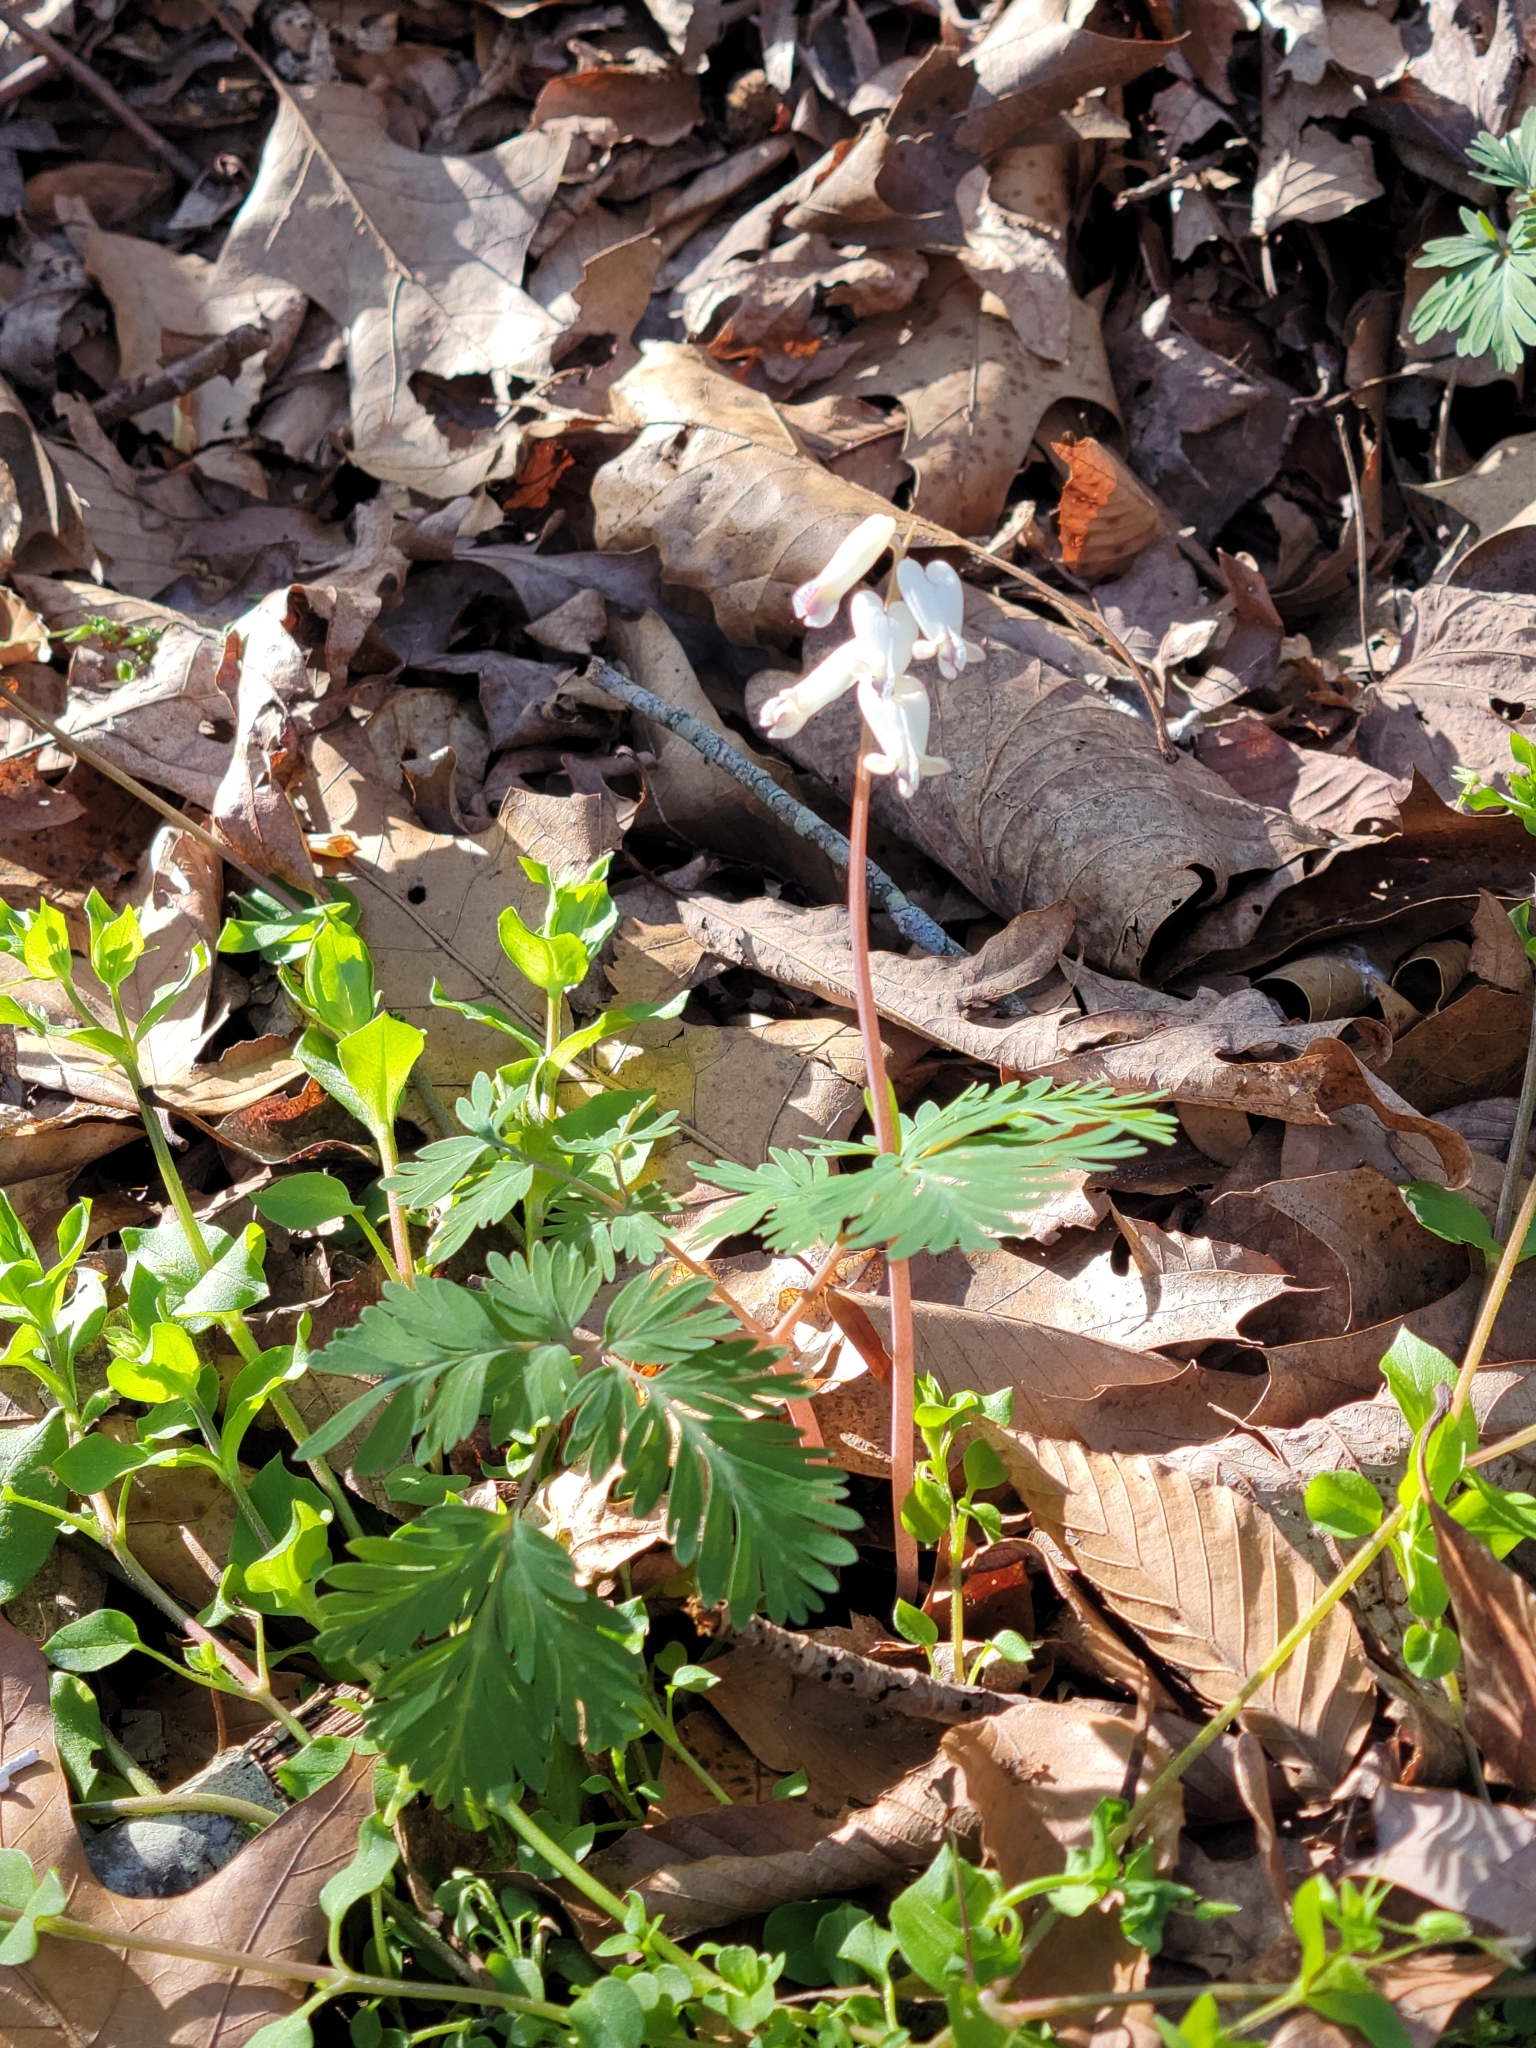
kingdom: Plantae
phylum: Tracheophyta
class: Magnoliopsida
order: Ranunculales
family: Papaveraceae
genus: Dicentra
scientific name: Dicentra canadensis
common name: Squirrel-corn
